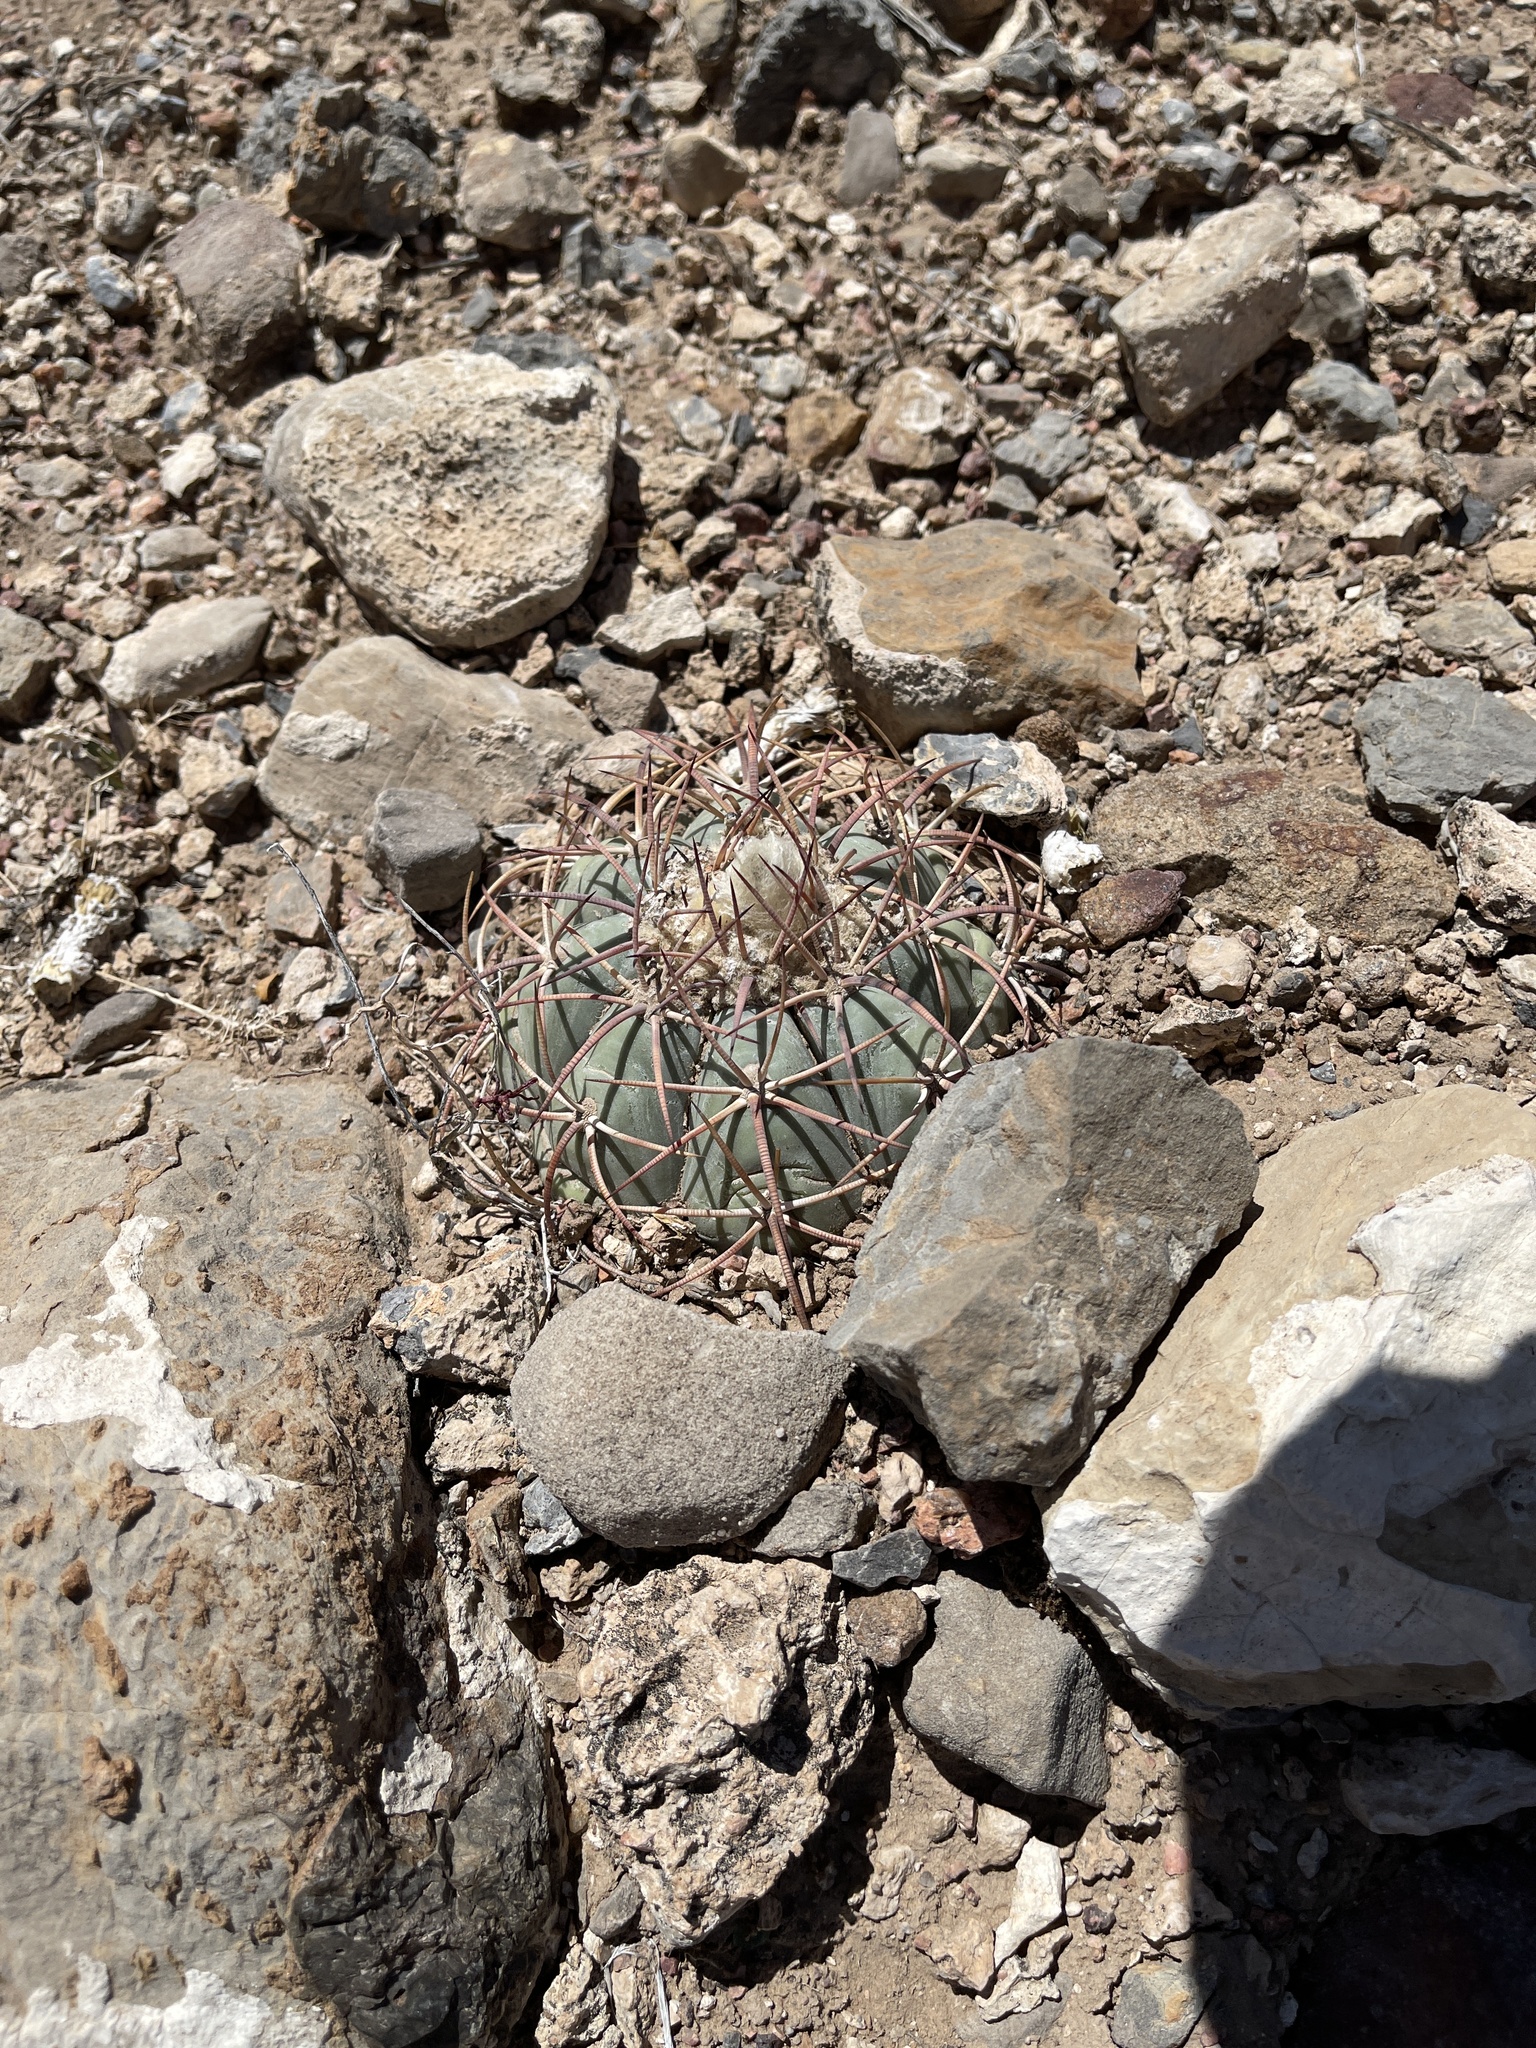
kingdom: Plantae
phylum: Tracheophyta
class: Magnoliopsida
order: Caryophyllales
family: Cactaceae
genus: Echinocactus
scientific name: Echinocactus horizonthalonius
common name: Devilshead
